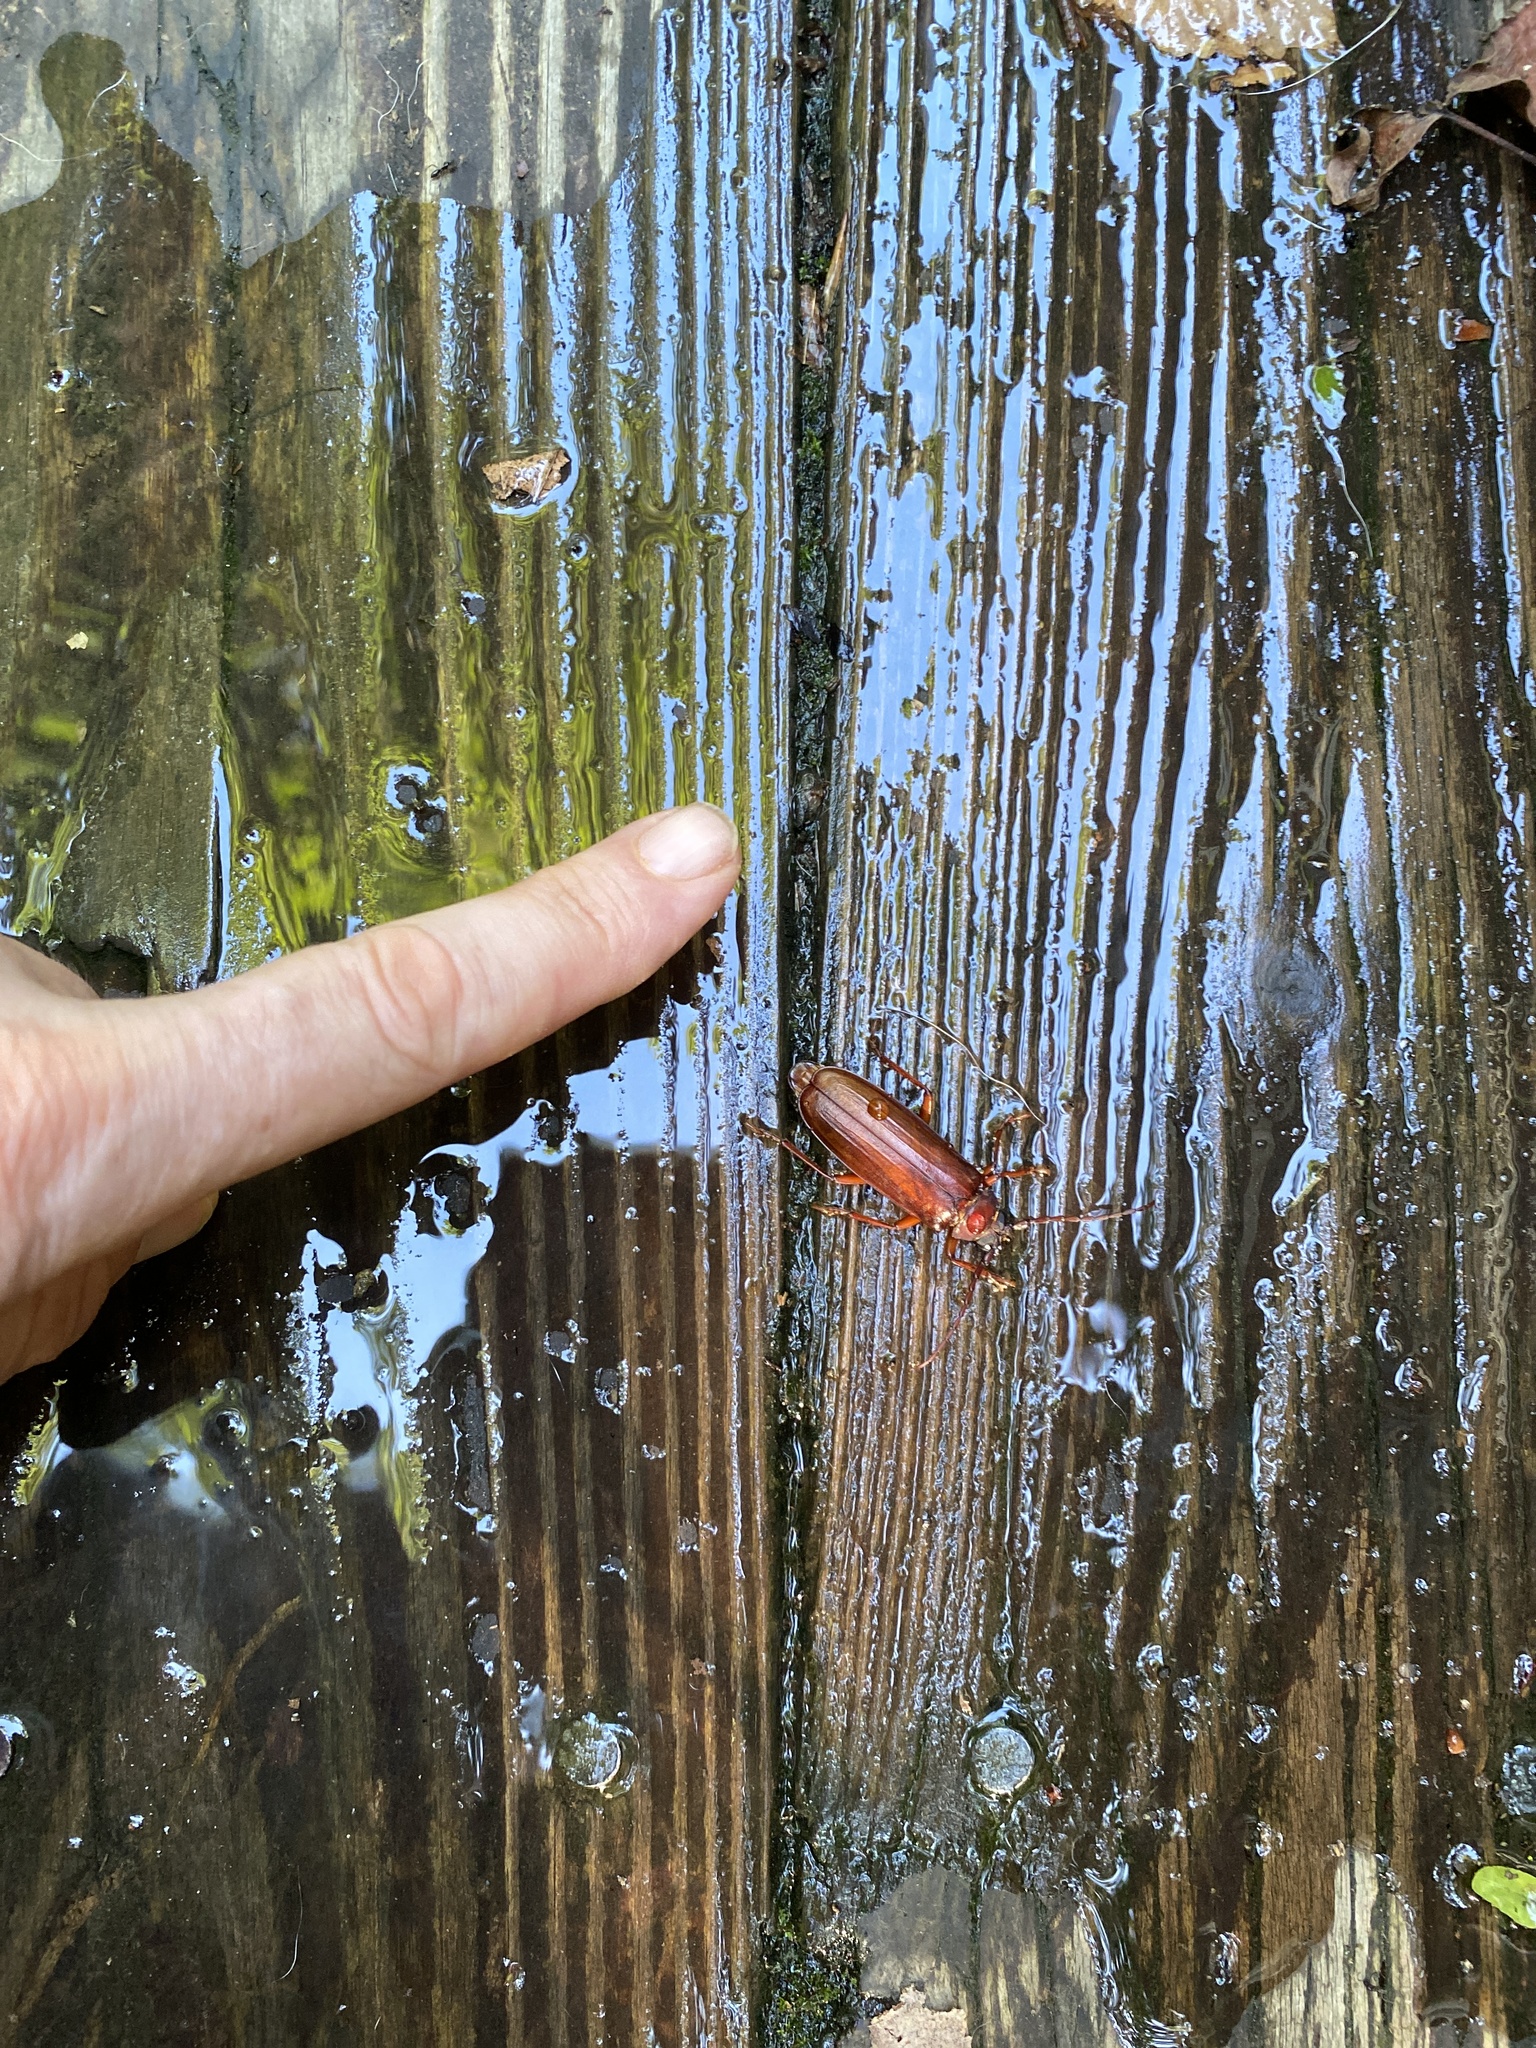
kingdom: Animalia
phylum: Arthropoda
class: Insecta
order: Coleoptera
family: Cerambycidae
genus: Orthosoma
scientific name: Orthosoma brunneum
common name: Brown prionid beetle
